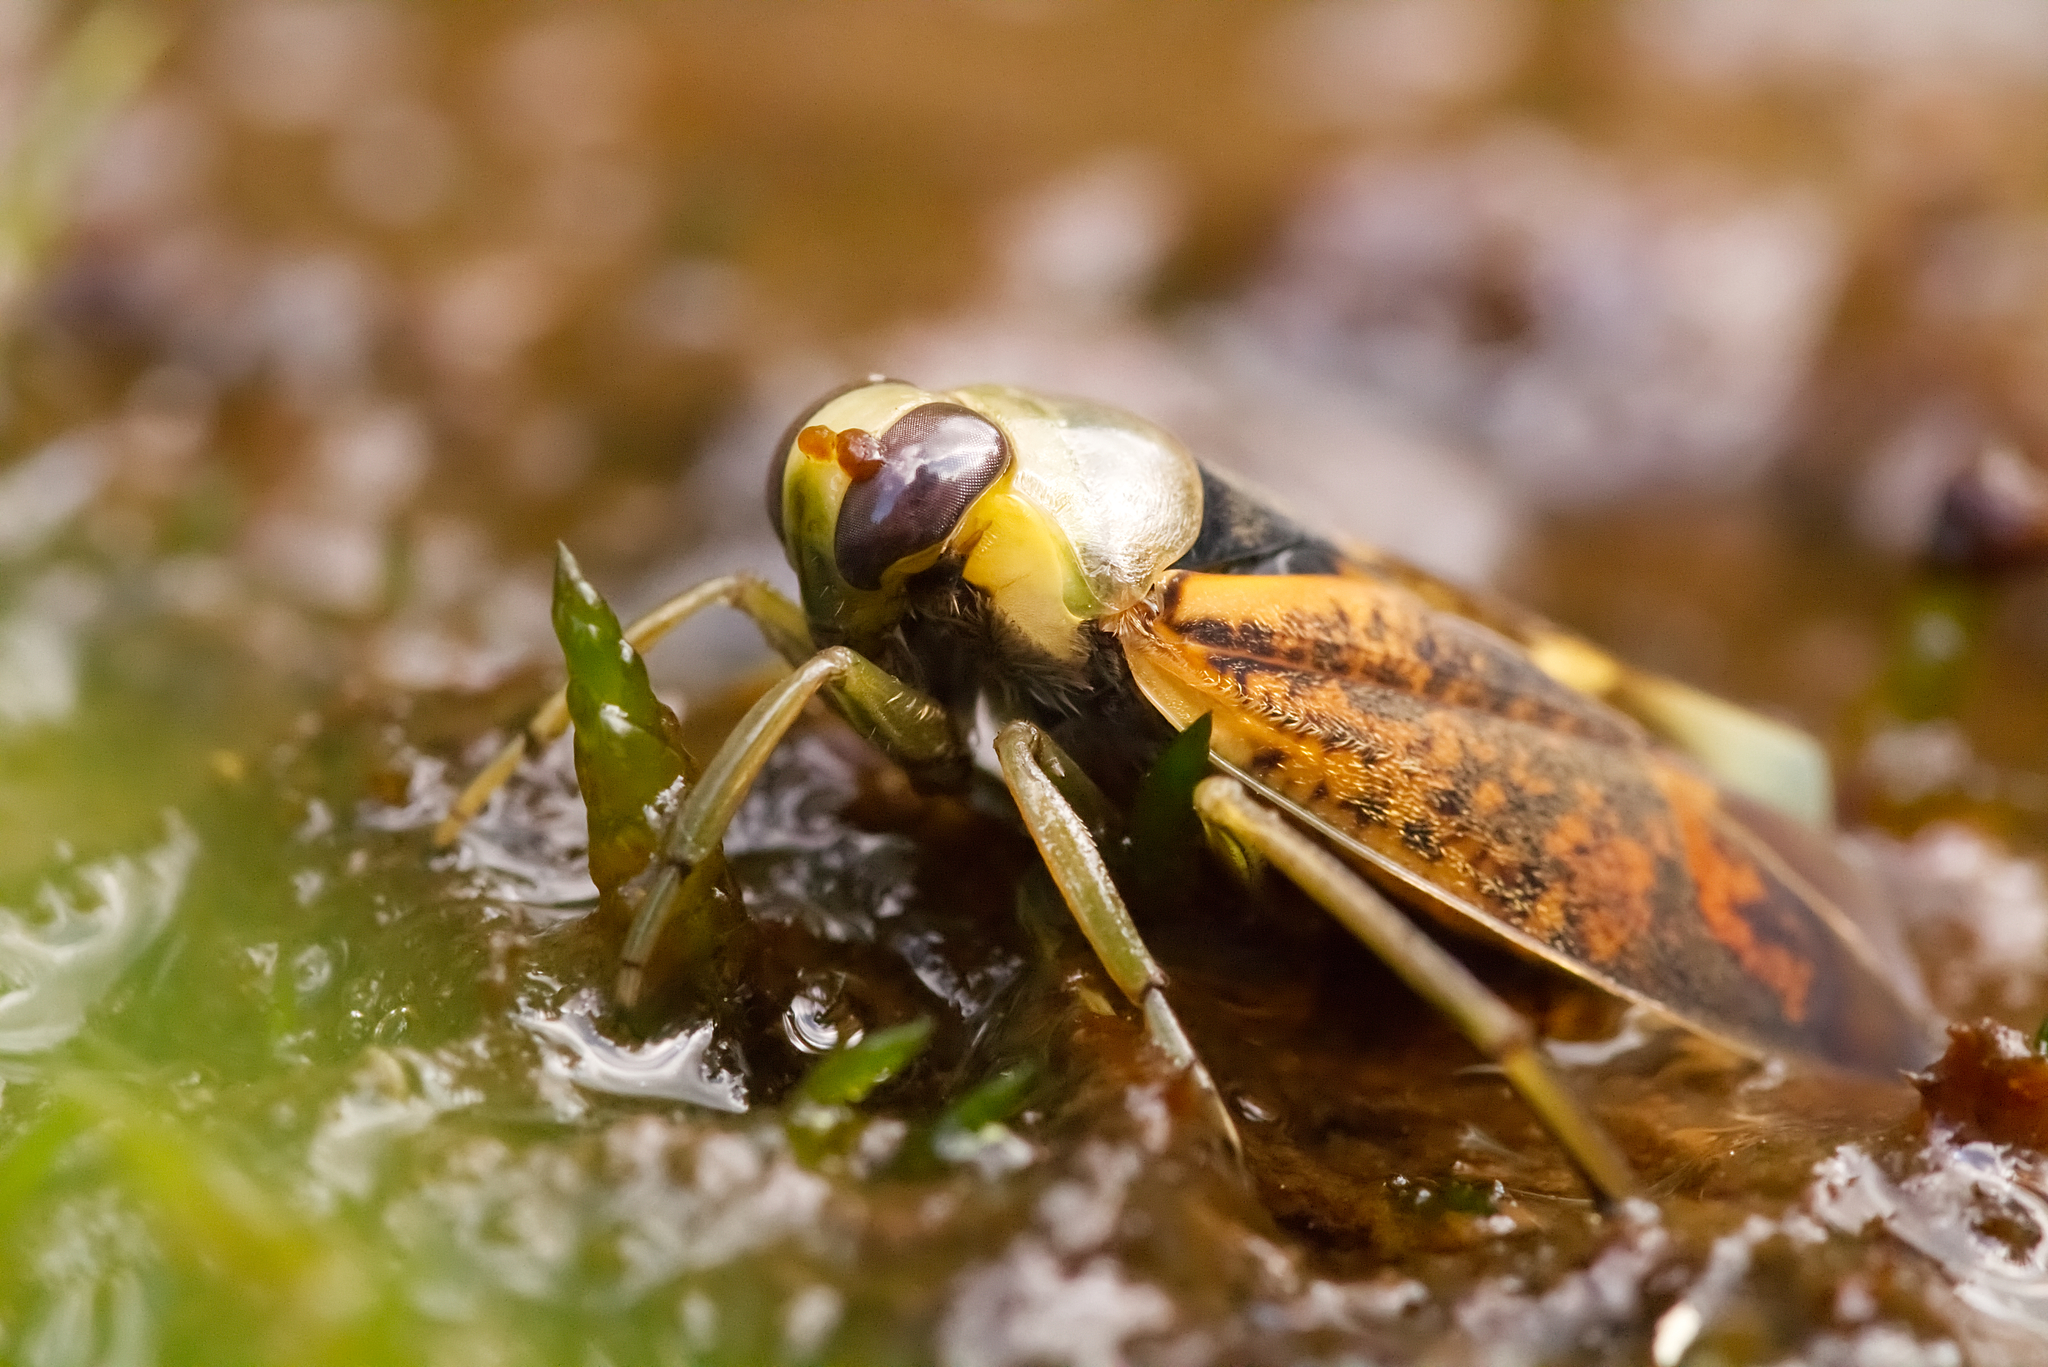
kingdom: Animalia
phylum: Arthropoda
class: Insecta
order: Hemiptera
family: Notonectidae
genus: Notonecta
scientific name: Notonecta maculata
